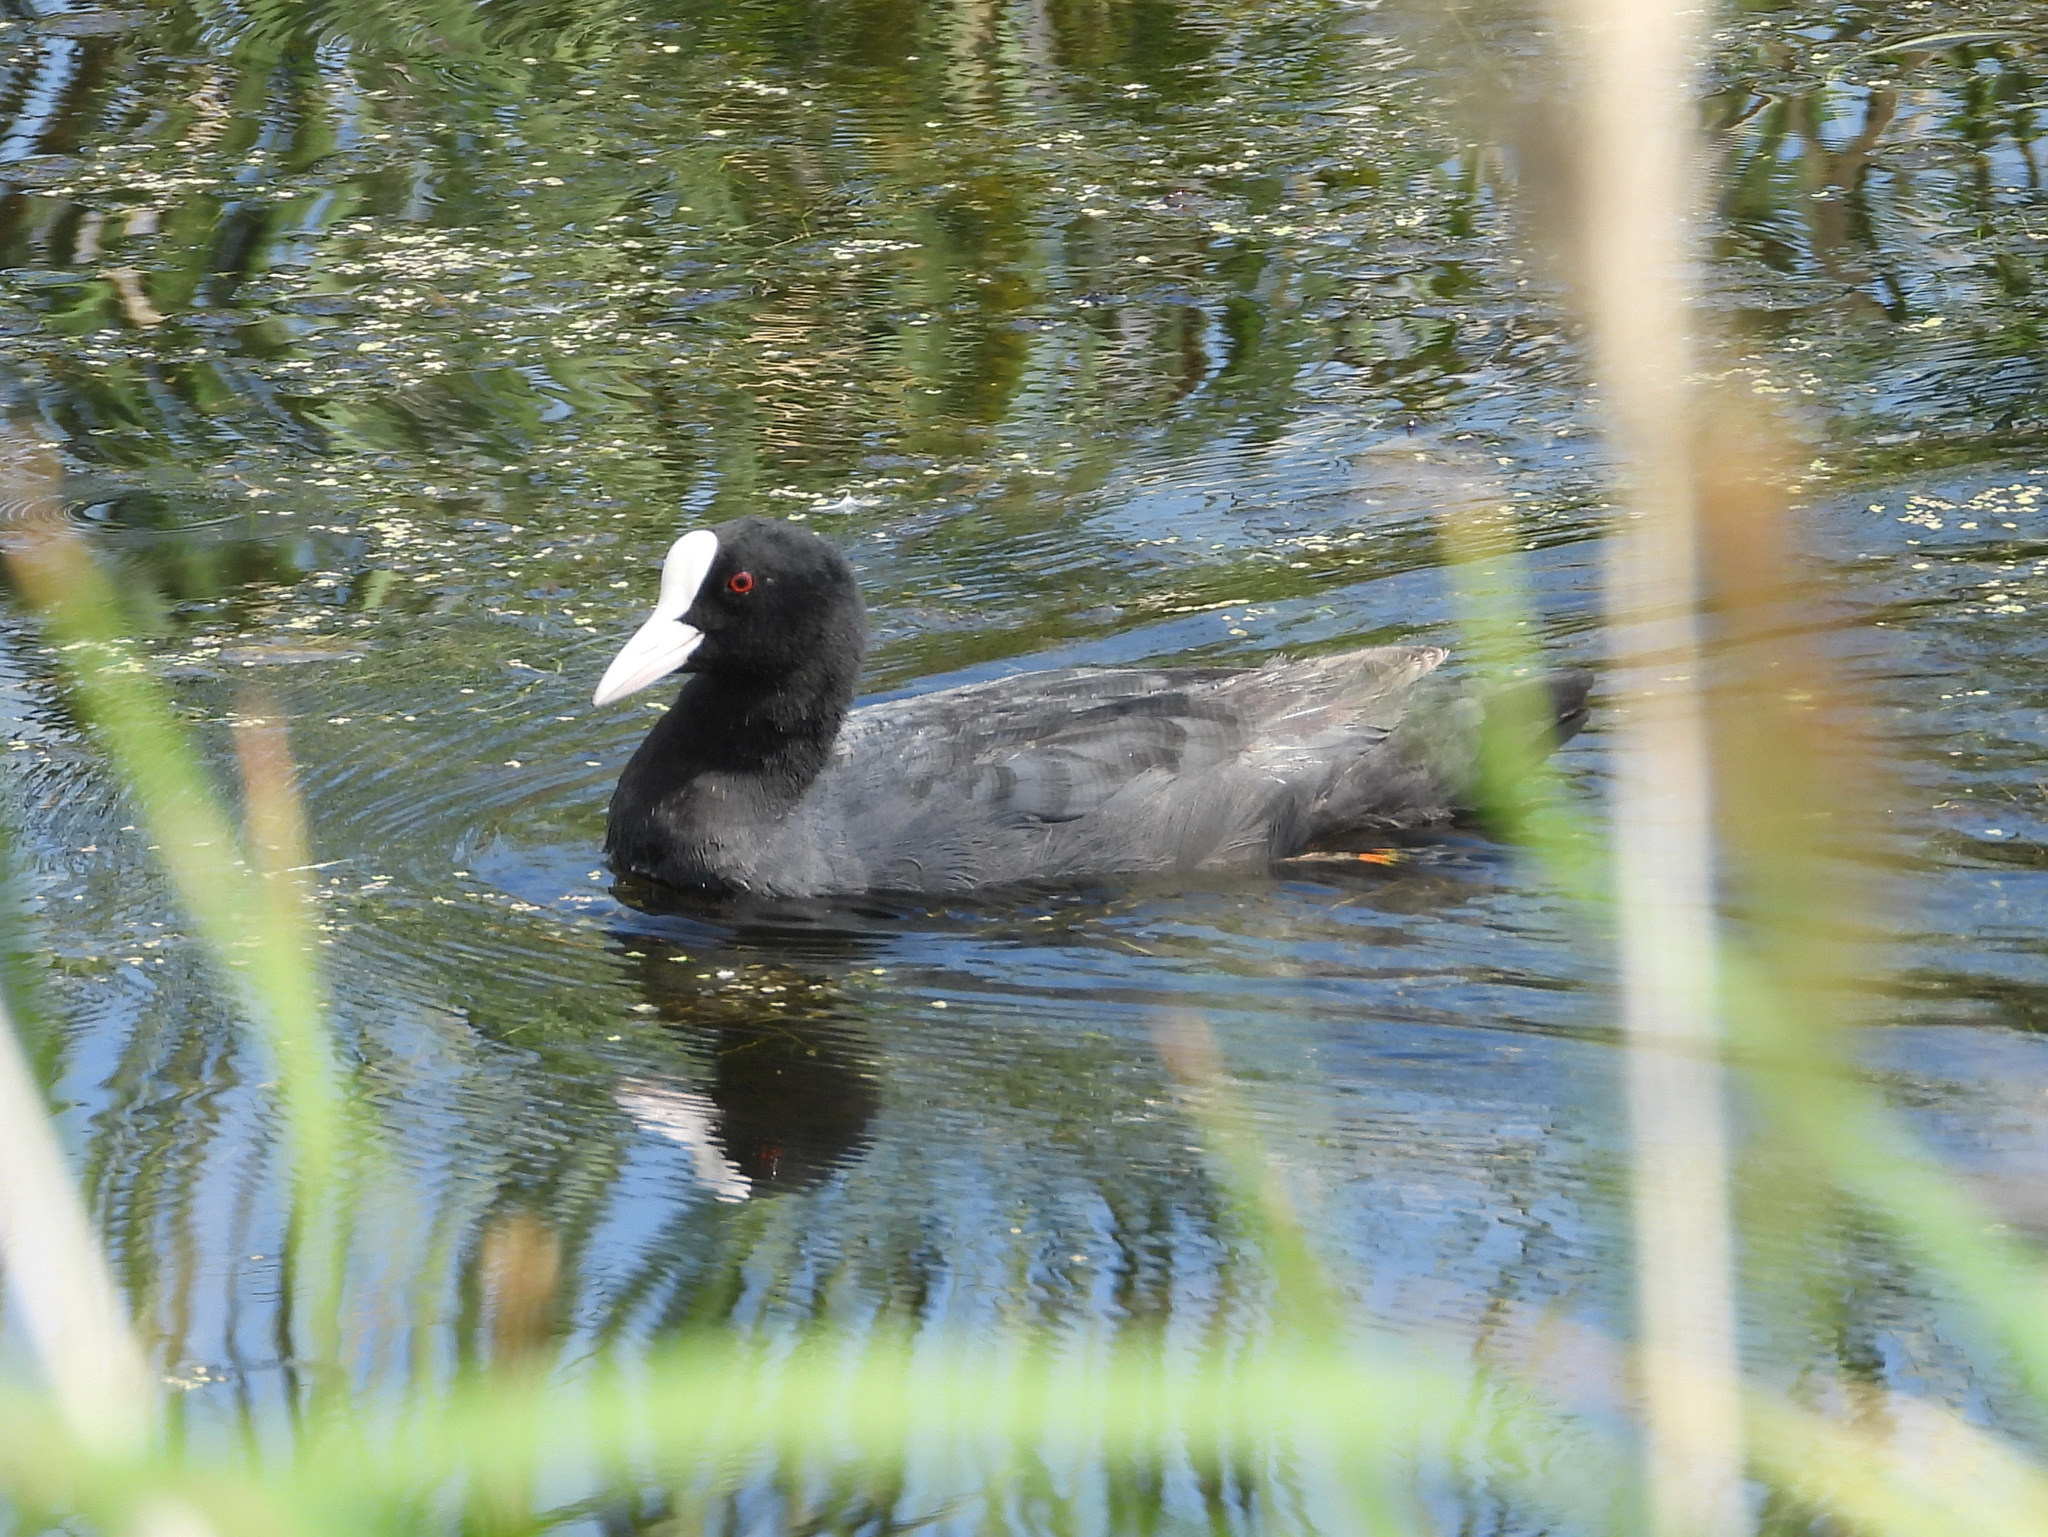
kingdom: Animalia
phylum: Chordata
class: Aves
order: Gruiformes
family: Rallidae
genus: Fulica
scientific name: Fulica atra
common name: Eurasian coot
